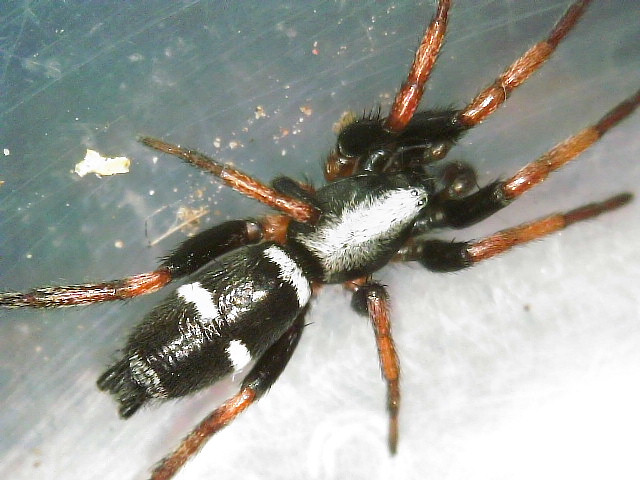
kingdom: Animalia
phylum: Arthropoda
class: Arachnida
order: Araneae
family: Gnaphosidae
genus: Sergiolus
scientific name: Sergiolus columbianus
